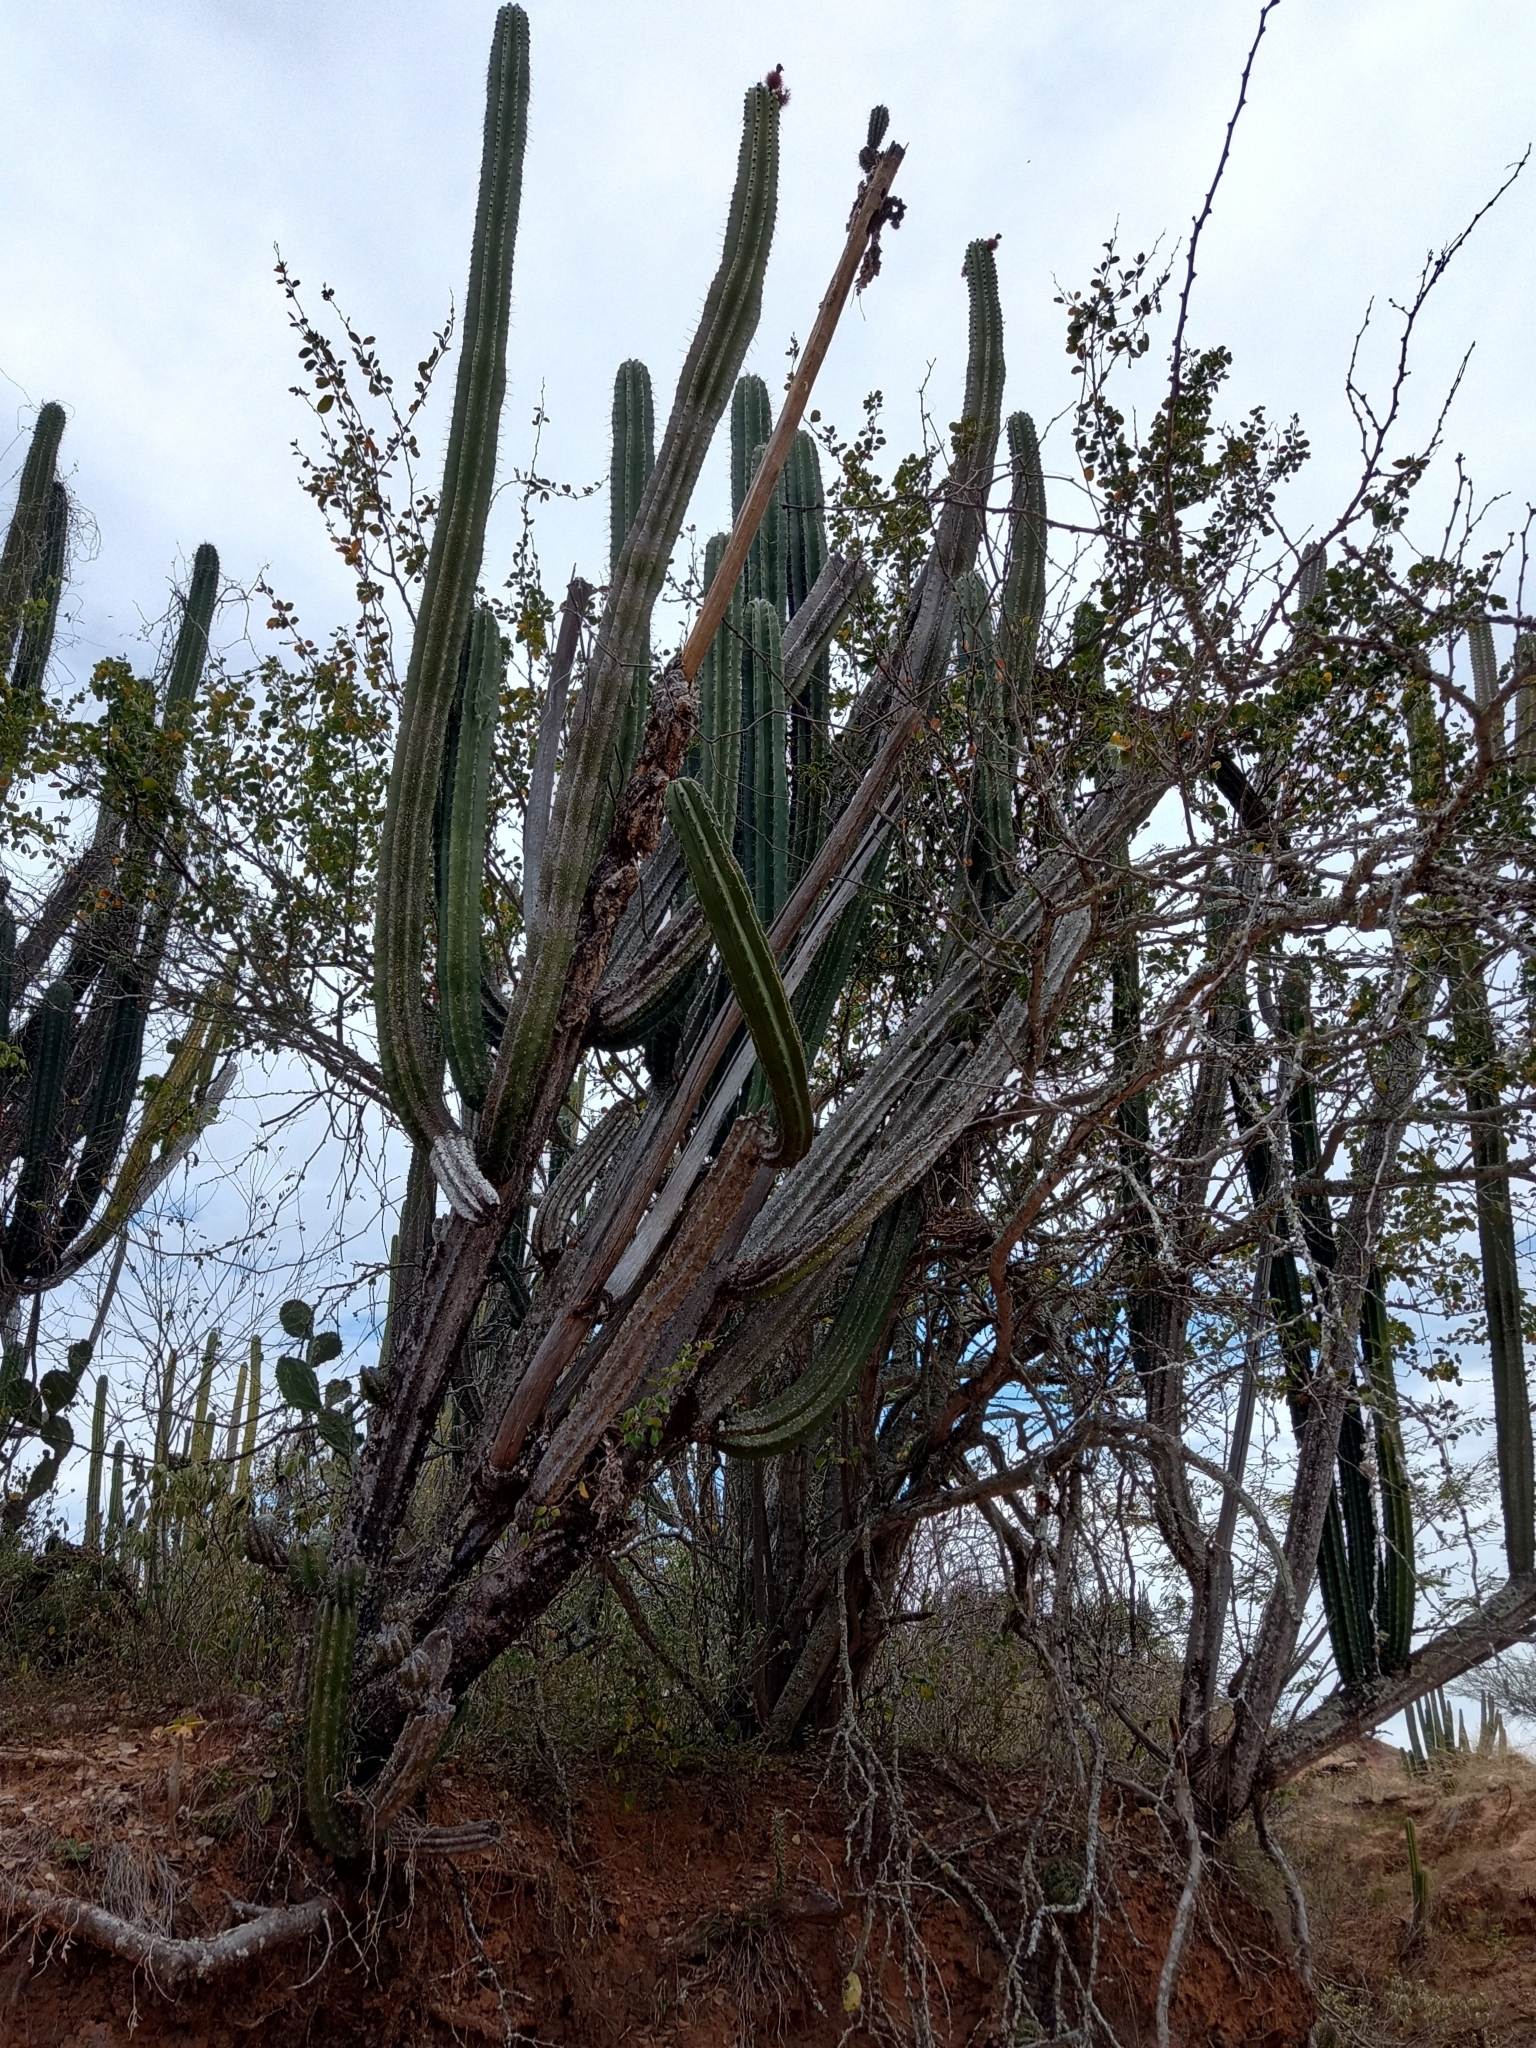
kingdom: Plantae
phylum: Tracheophyta
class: Magnoliopsida
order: Caryophyllales
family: Cactaceae
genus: Stenocereus
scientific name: Stenocereus griseus
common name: Tall candelabra cactus
